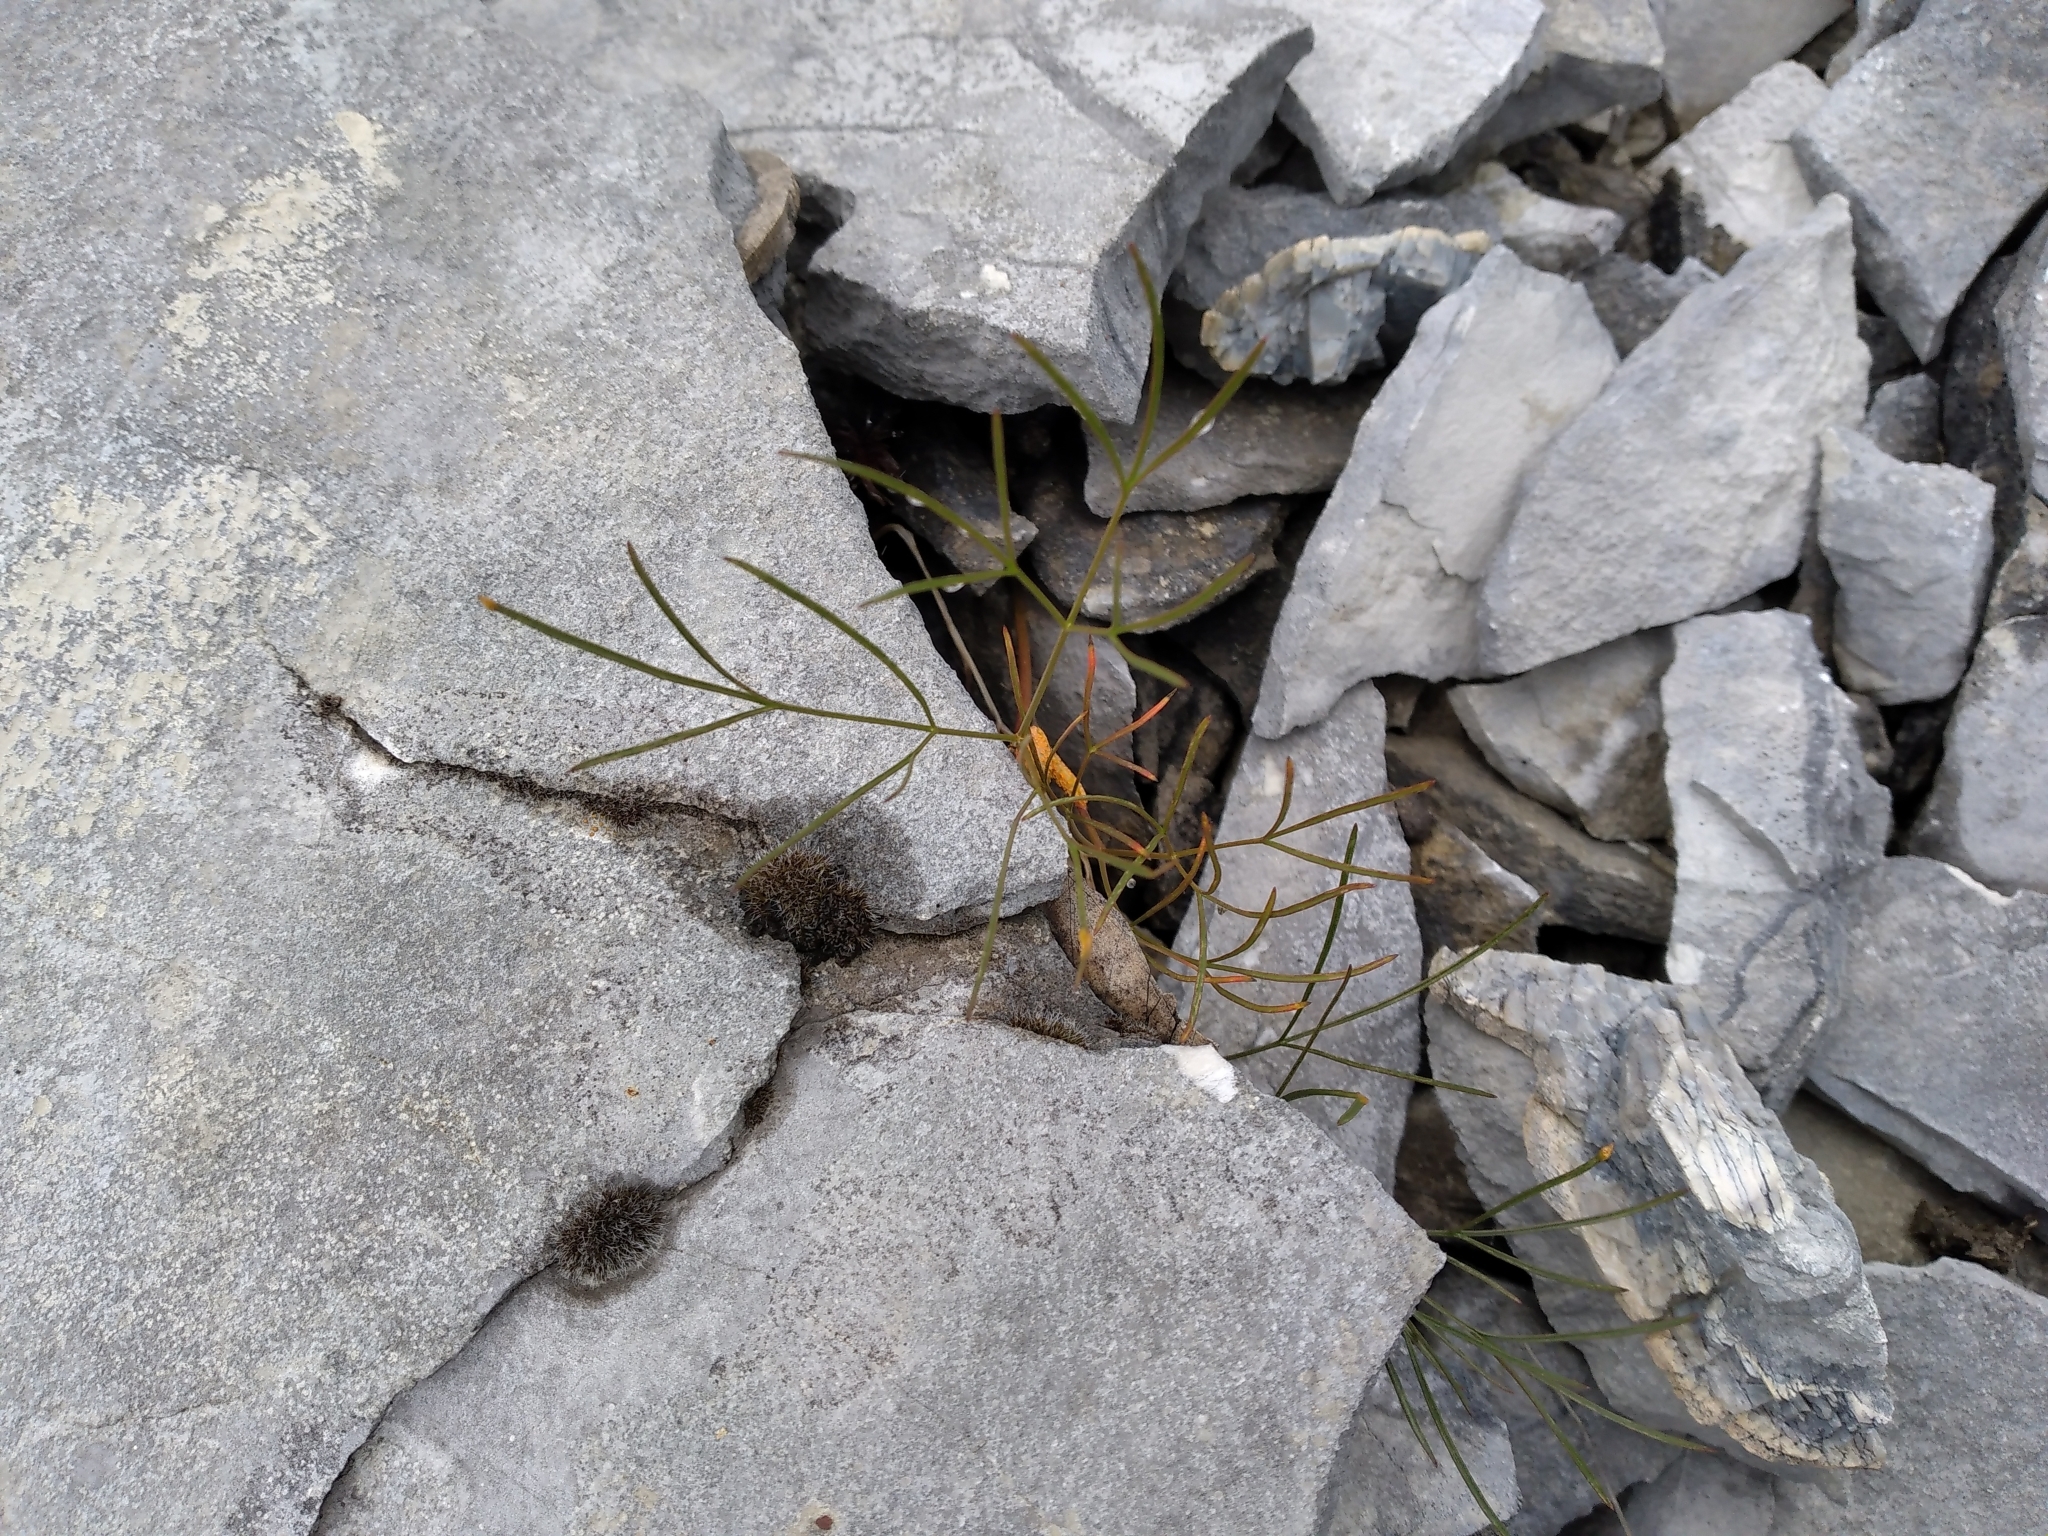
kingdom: Plantae
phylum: Tracheophyta
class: Magnoliopsida
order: Apiales
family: Apiaceae
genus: Anisotome
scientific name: Anisotome filifolia
